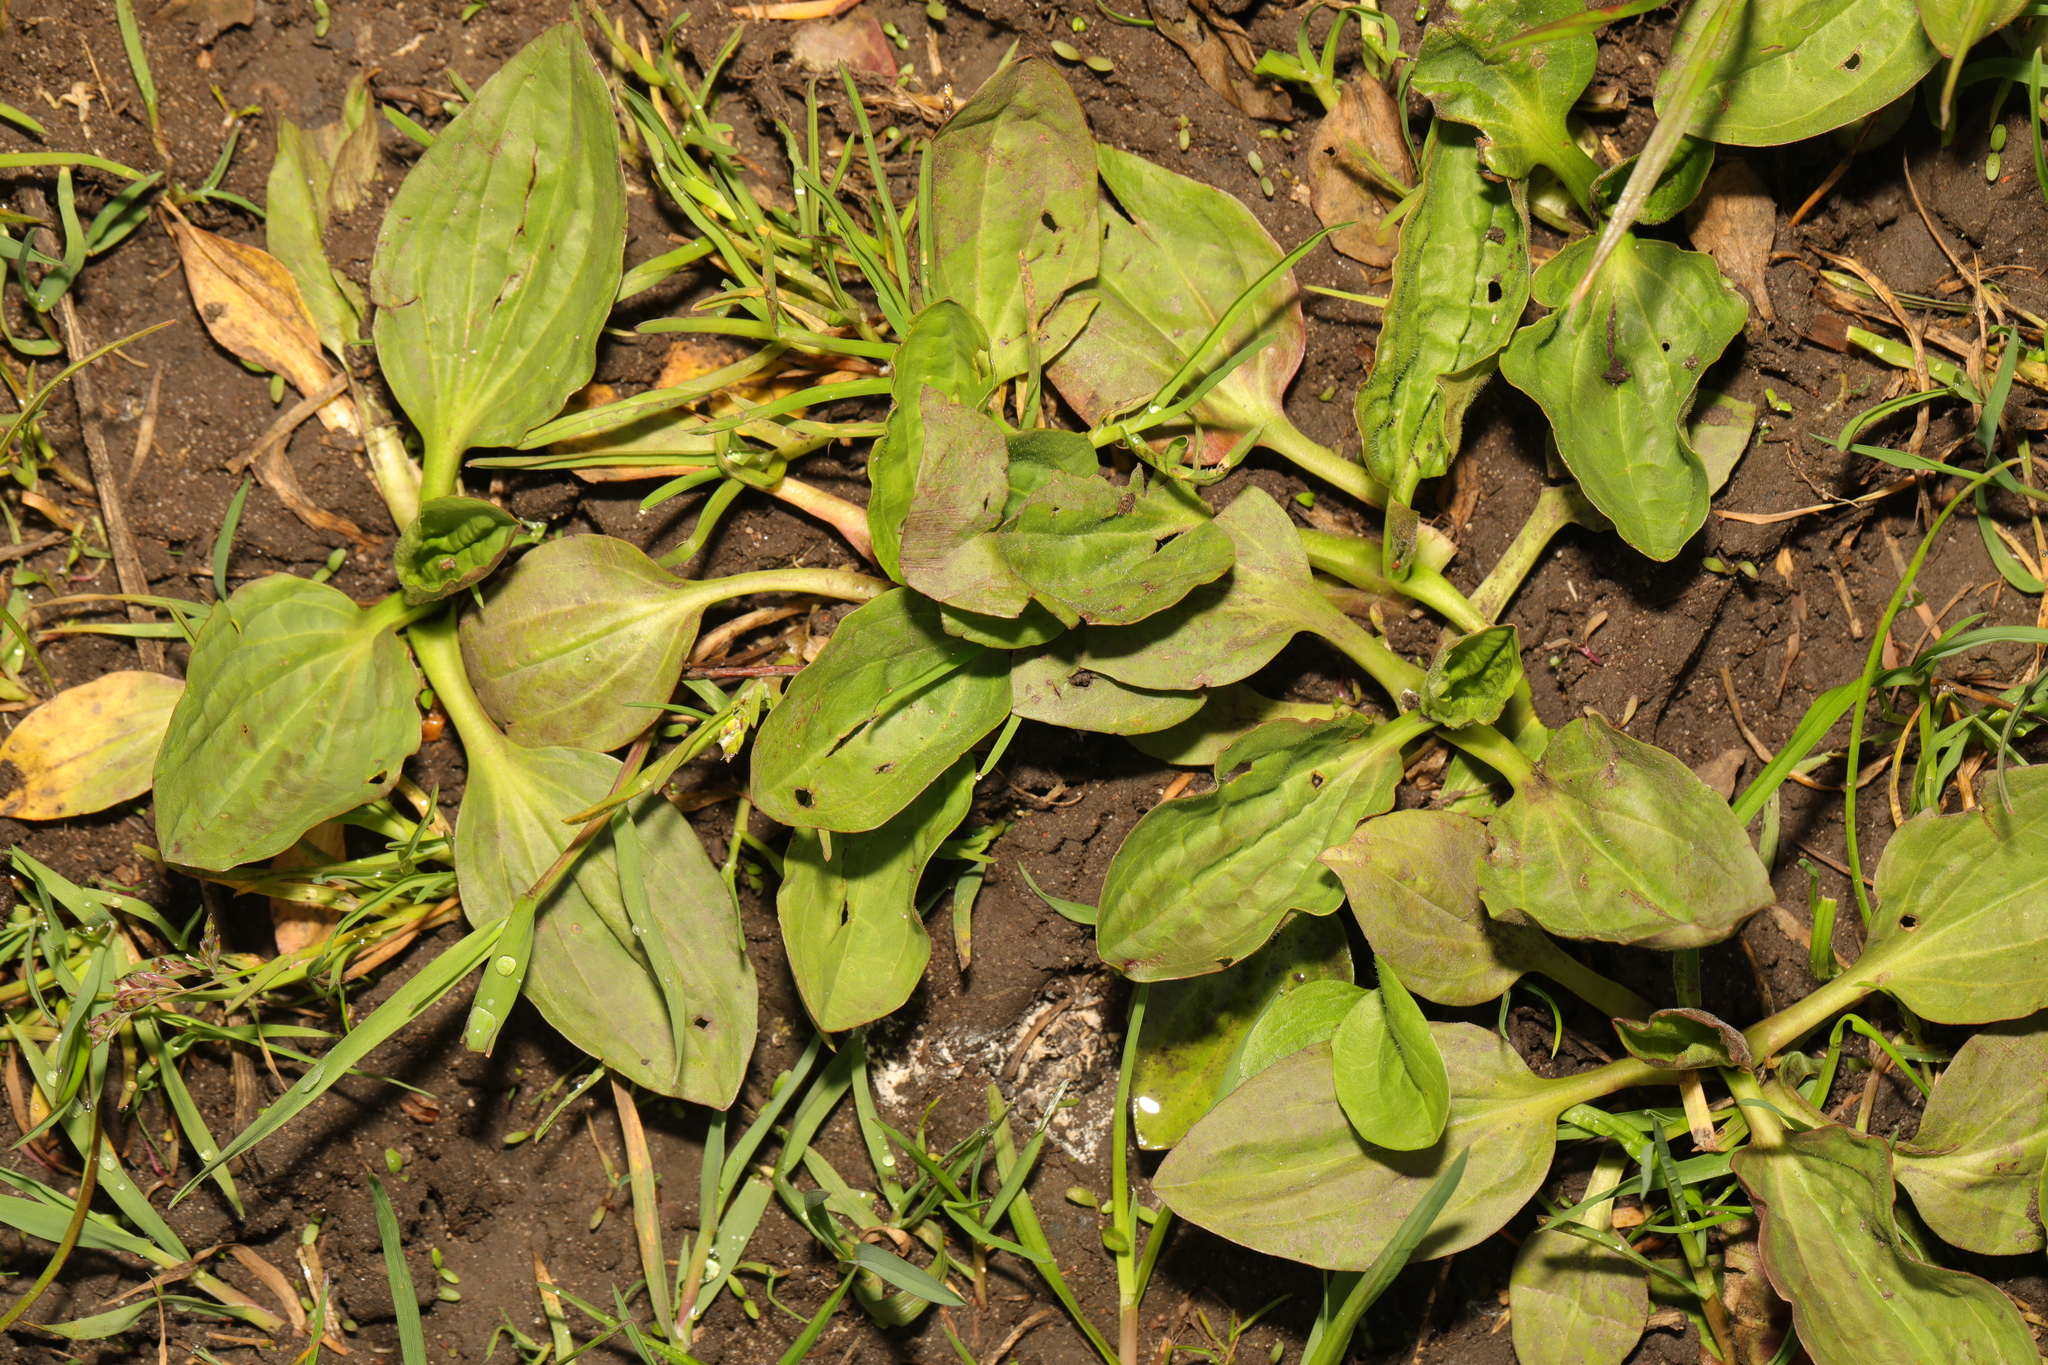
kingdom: Plantae
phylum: Tracheophyta
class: Magnoliopsida
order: Lamiales
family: Plantaginaceae
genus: Plantago
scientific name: Plantago major
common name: Common plantain
